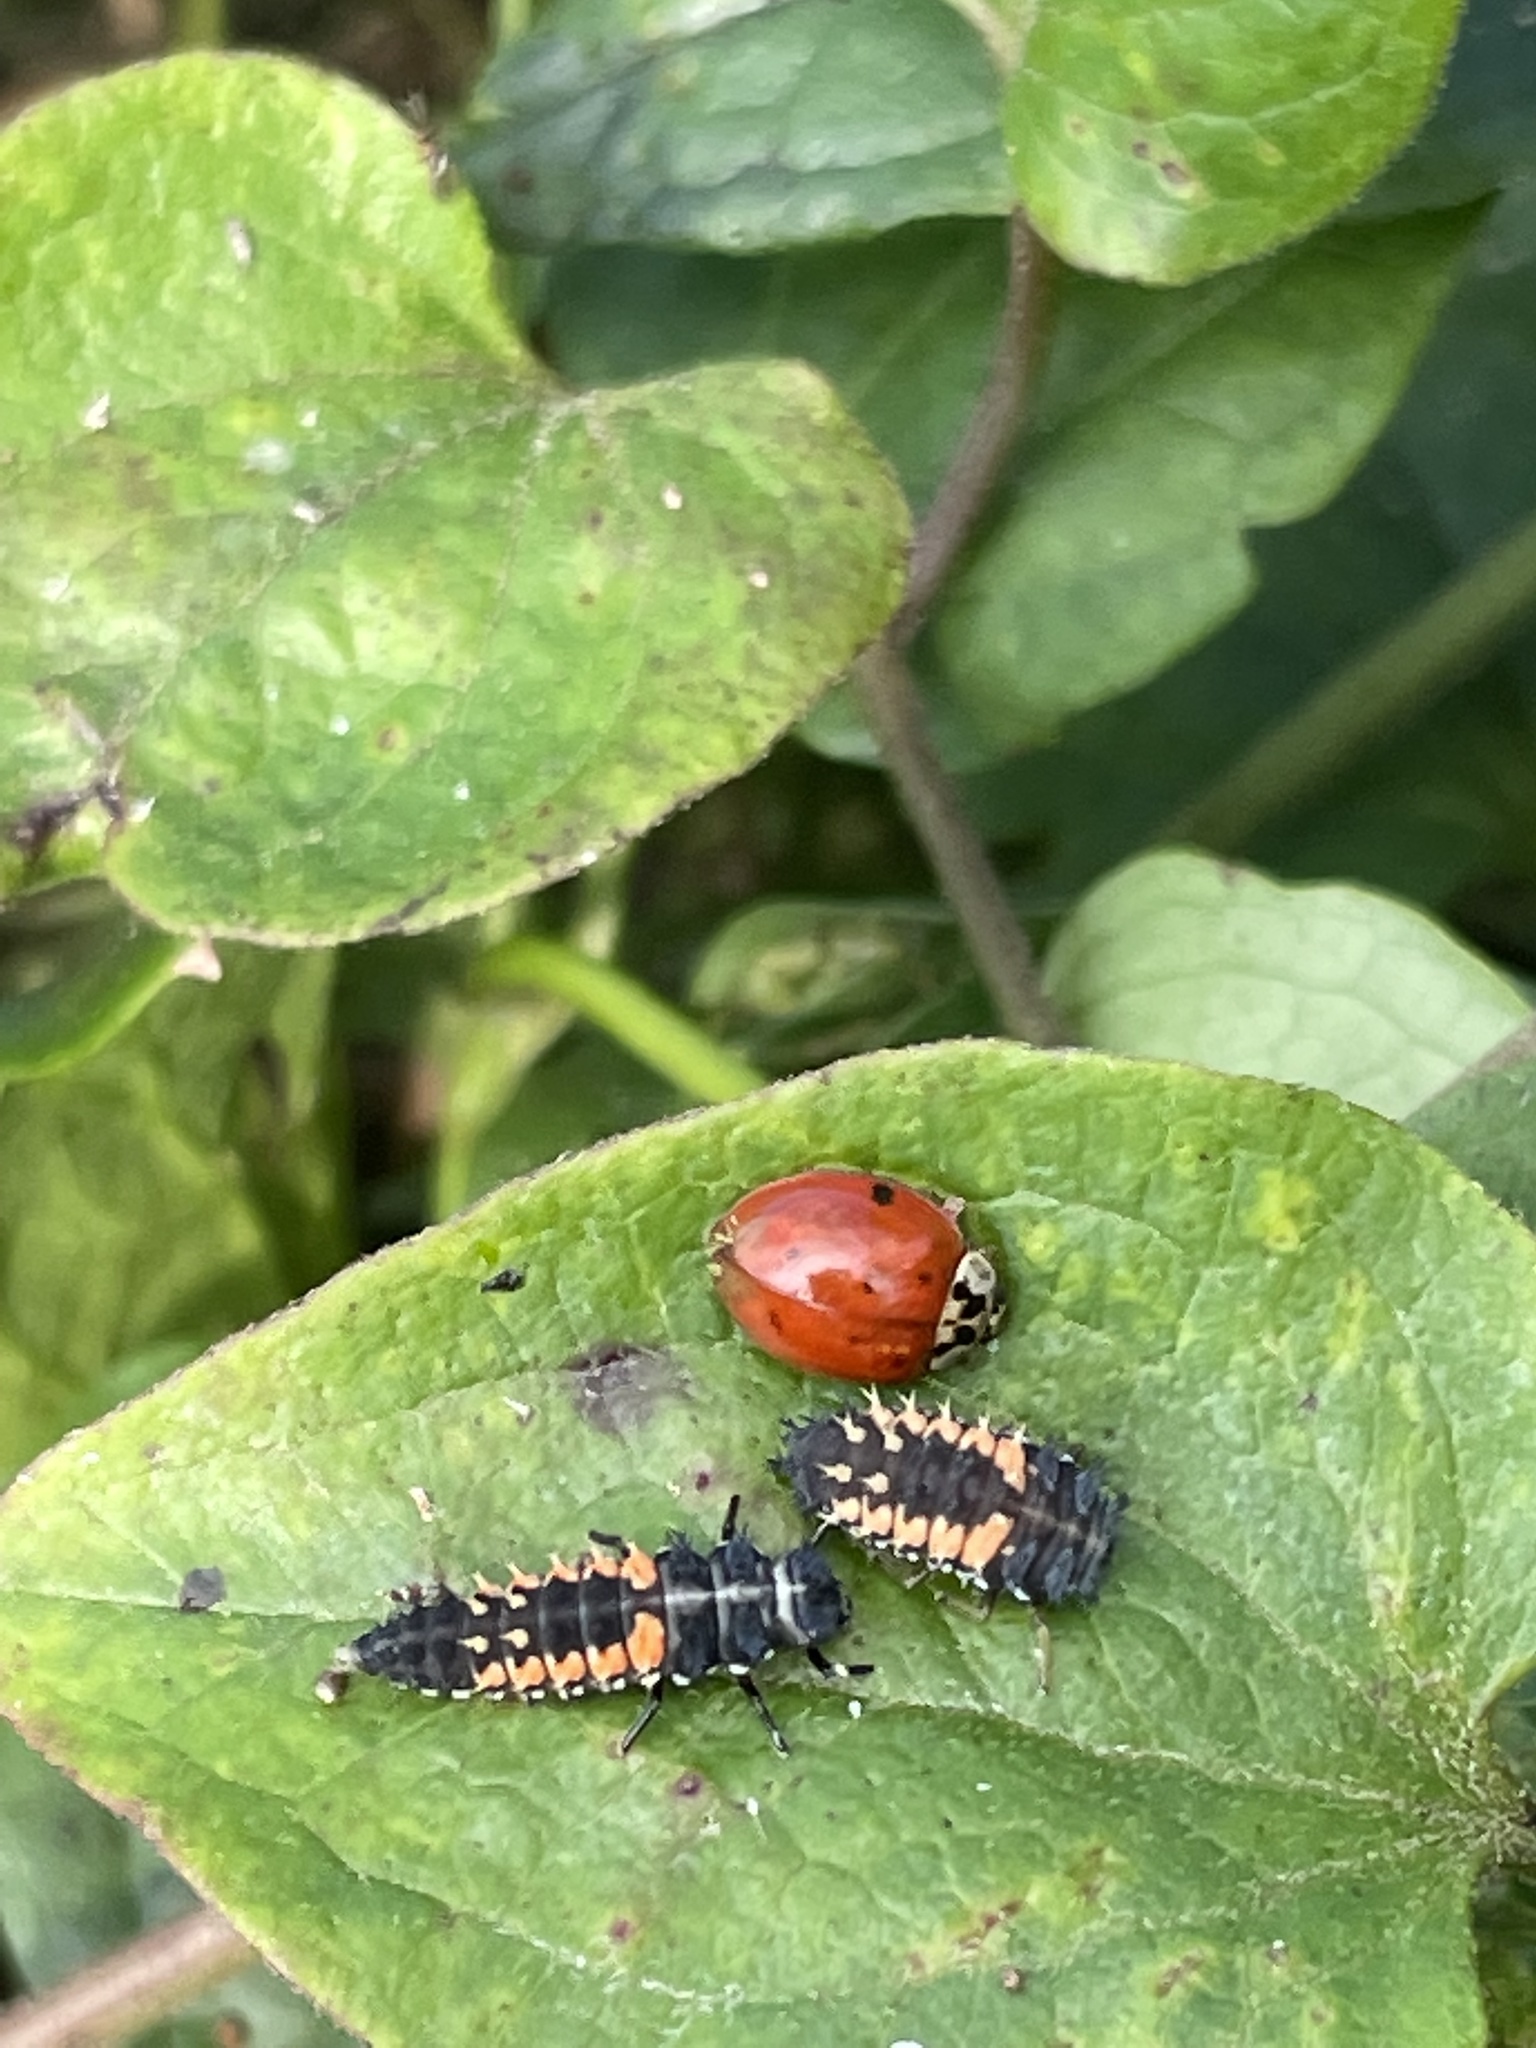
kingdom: Animalia
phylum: Arthropoda
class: Insecta
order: Coleoptera
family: Coccinellidae
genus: Harmonia
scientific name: Harmonia axyridis
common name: Harlequin ladybird
